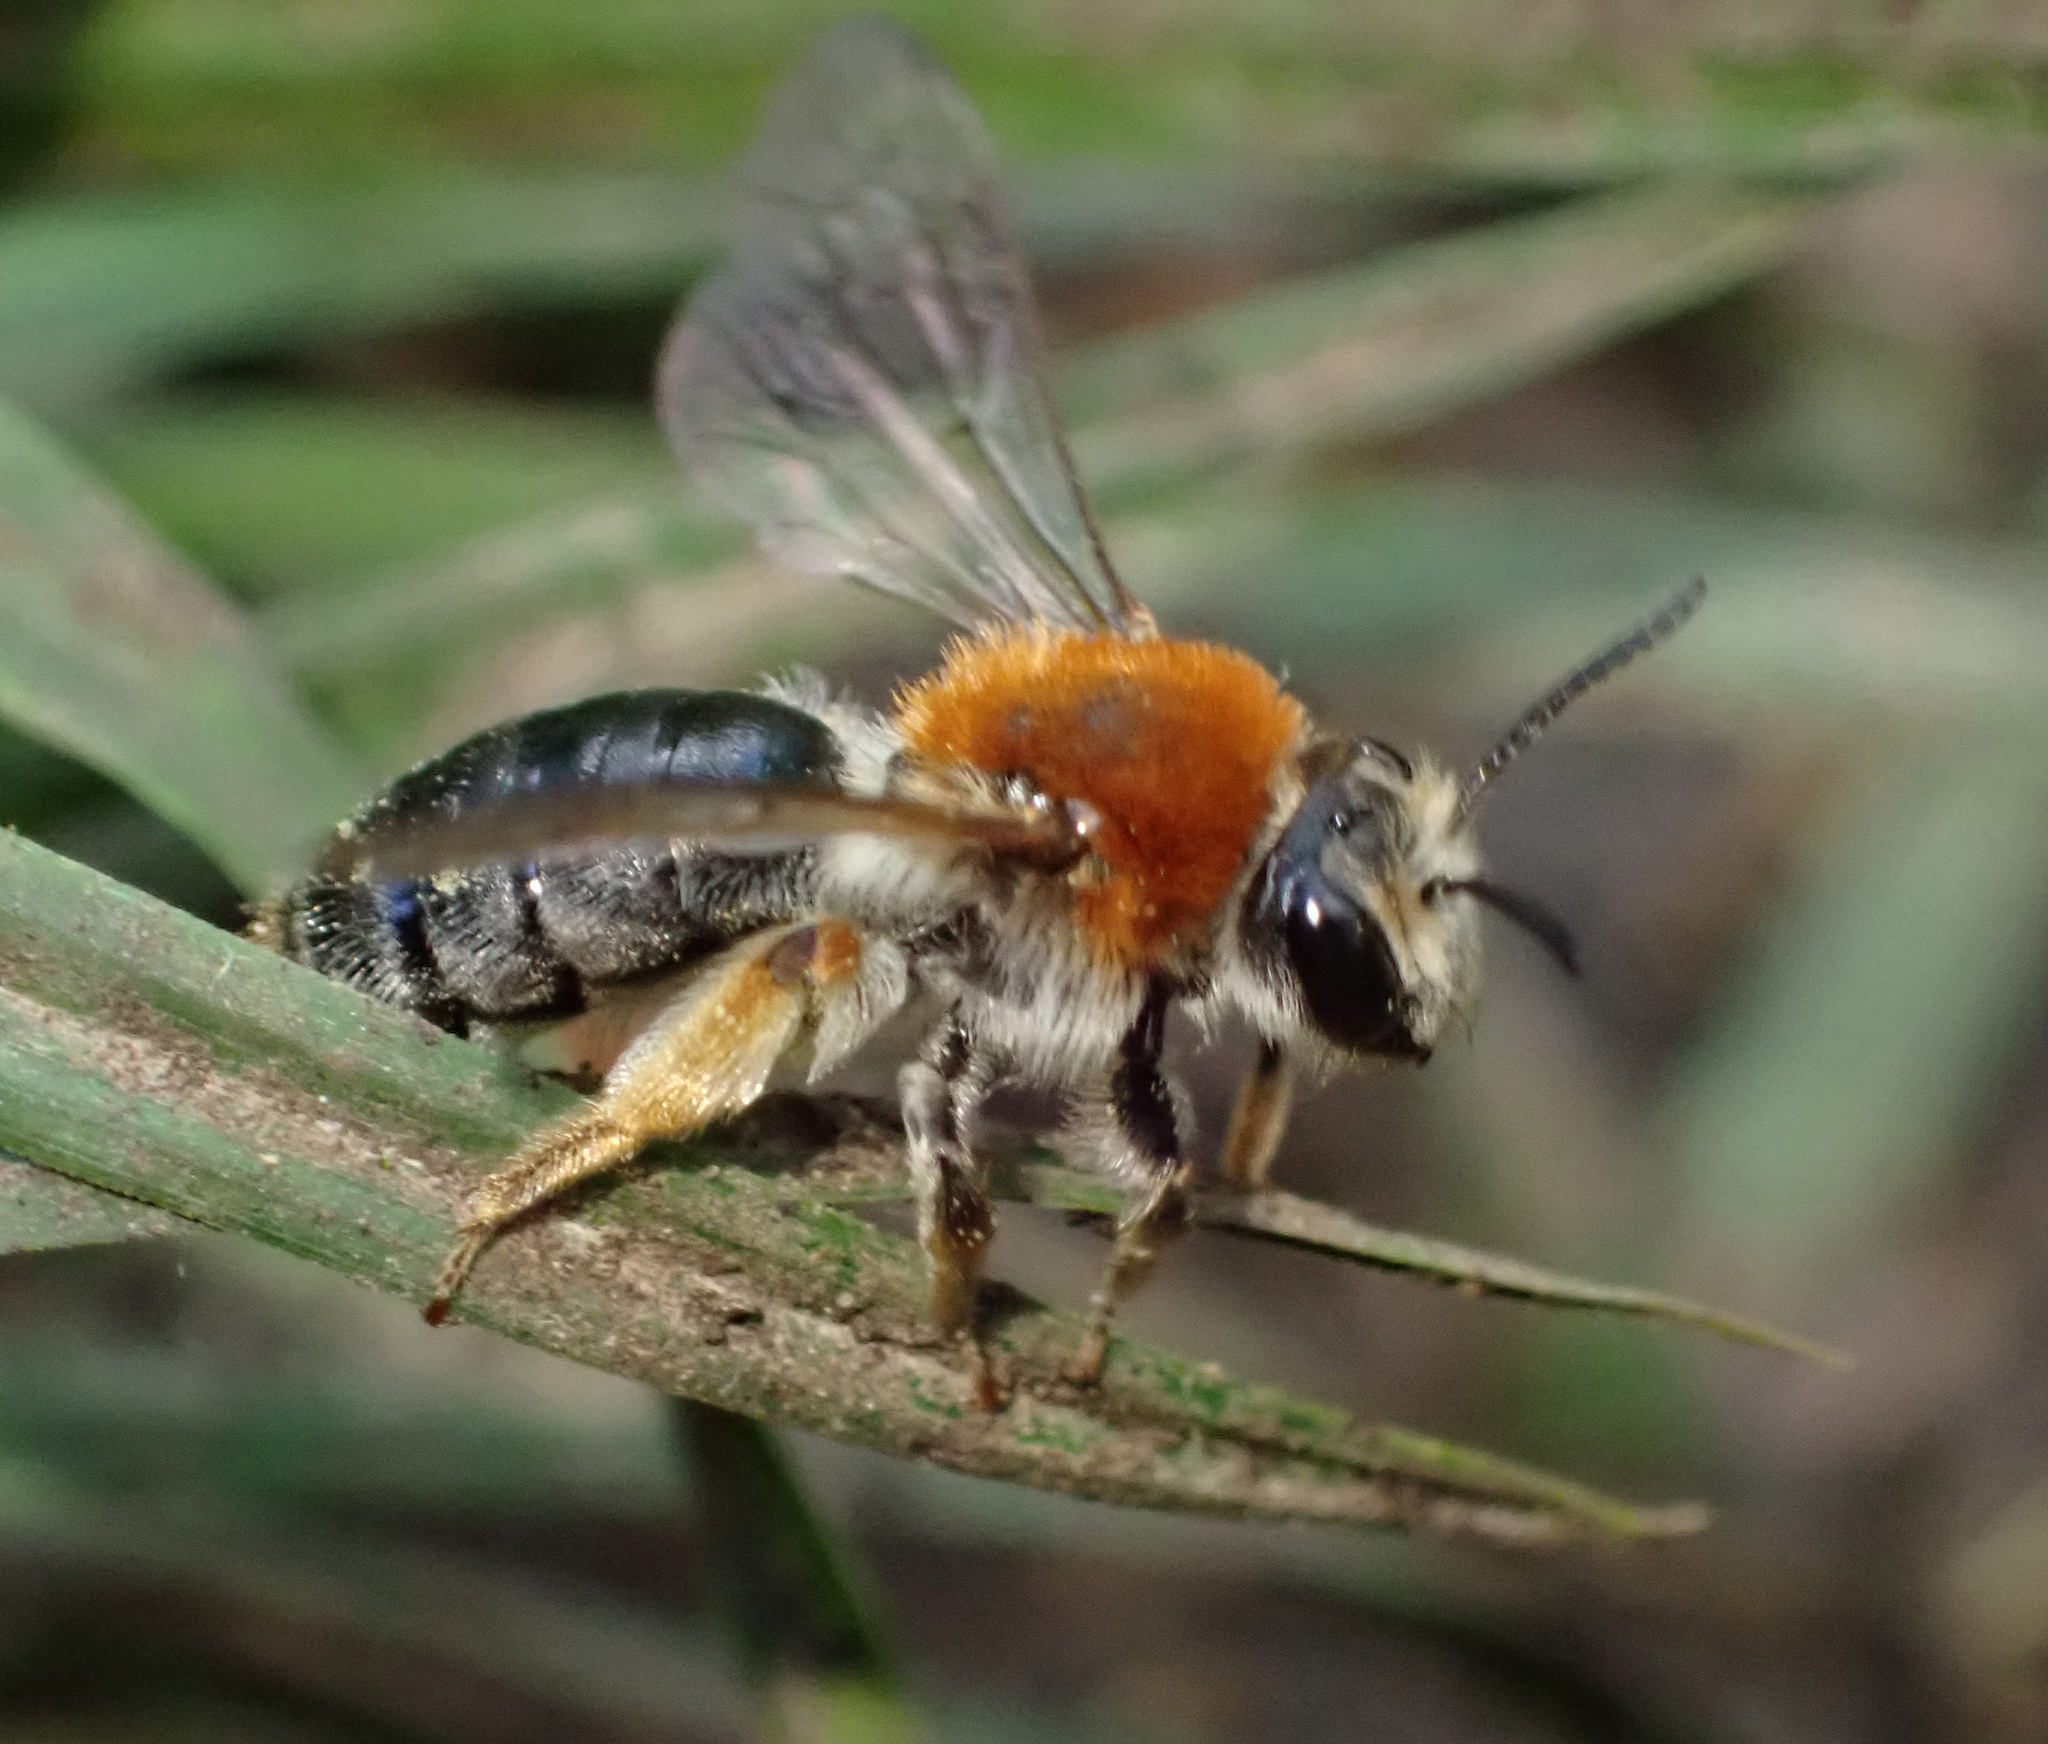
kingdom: Animalia
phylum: Arthropoda
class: Insecta
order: Hymenoptera
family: Andrenidae
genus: Andrena
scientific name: Andrena haemorrhoa
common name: Early mining bee
